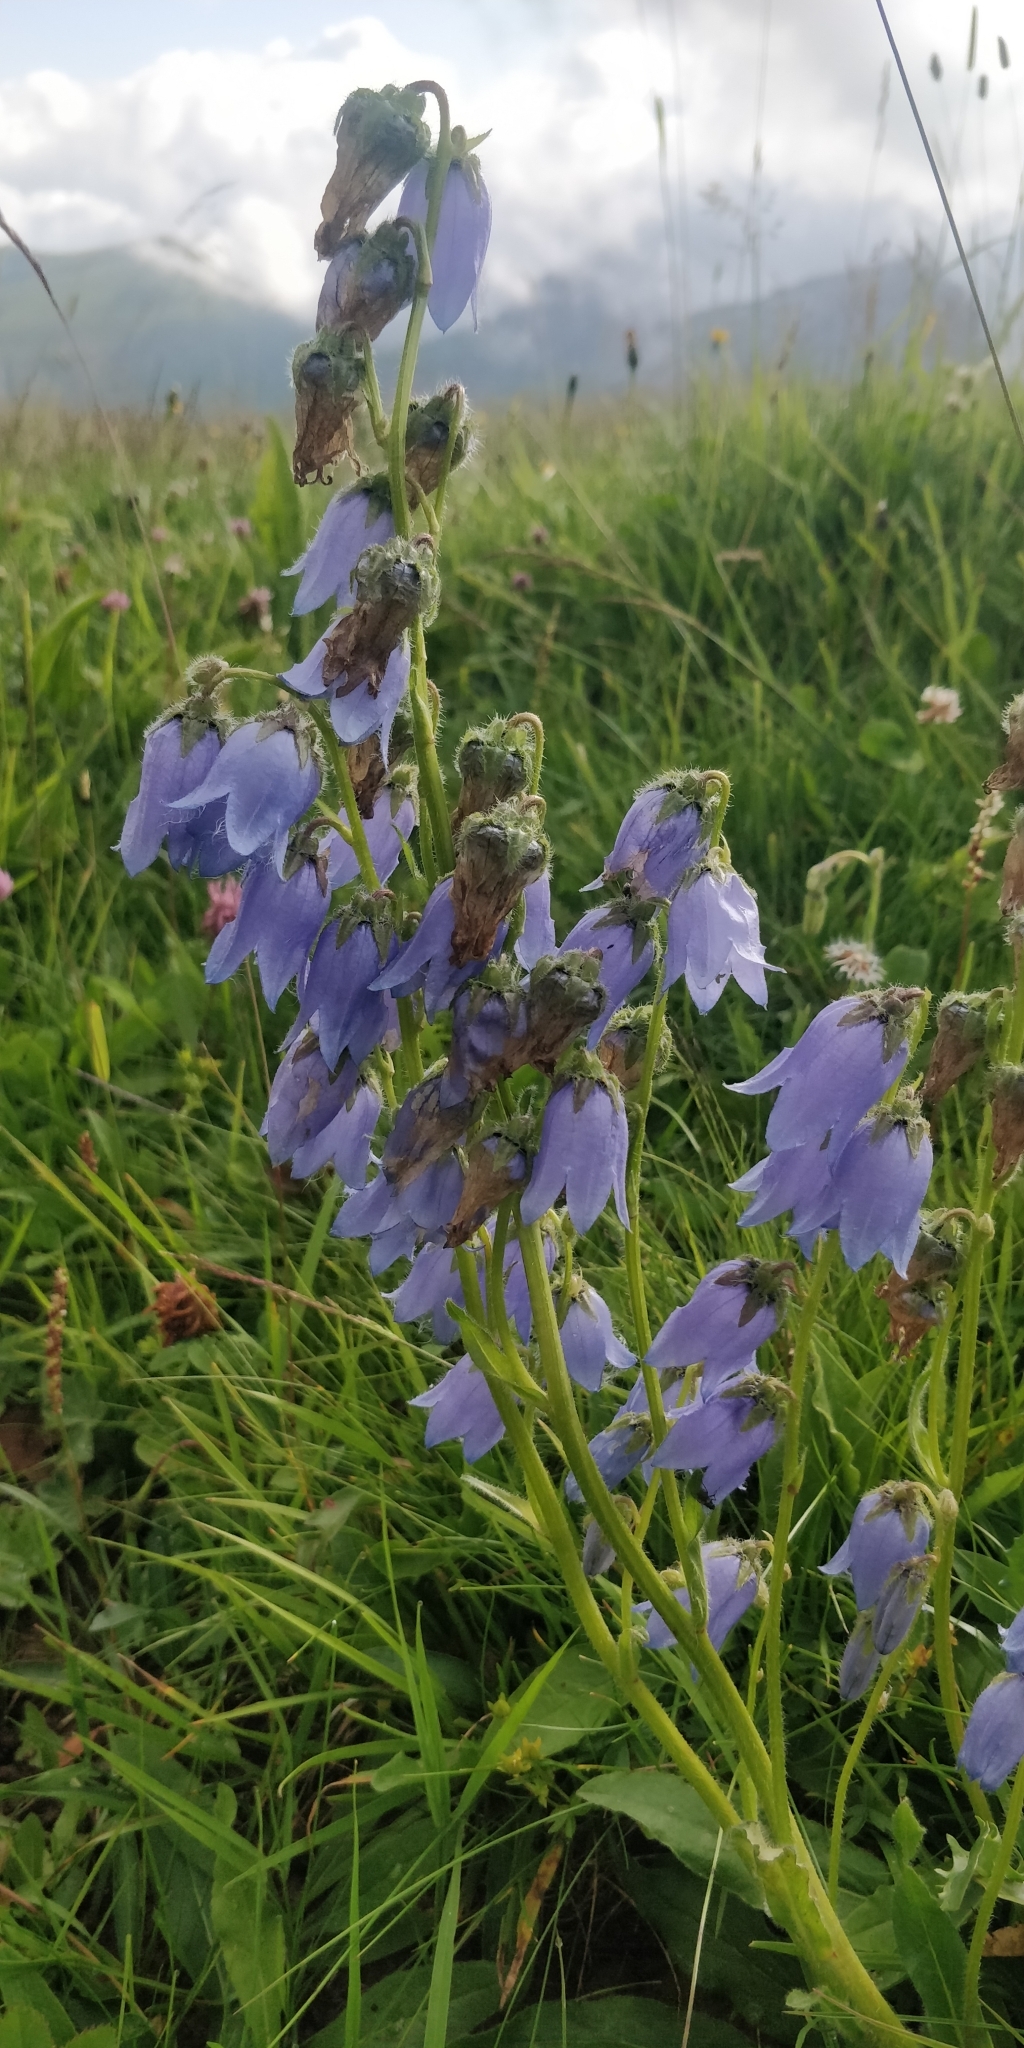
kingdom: Plantae
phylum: Tracheophyta
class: Magnoliopsida
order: Asterales
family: Campanulaceae
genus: Campanula
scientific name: Campanula barbata
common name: Bearded bellflower
